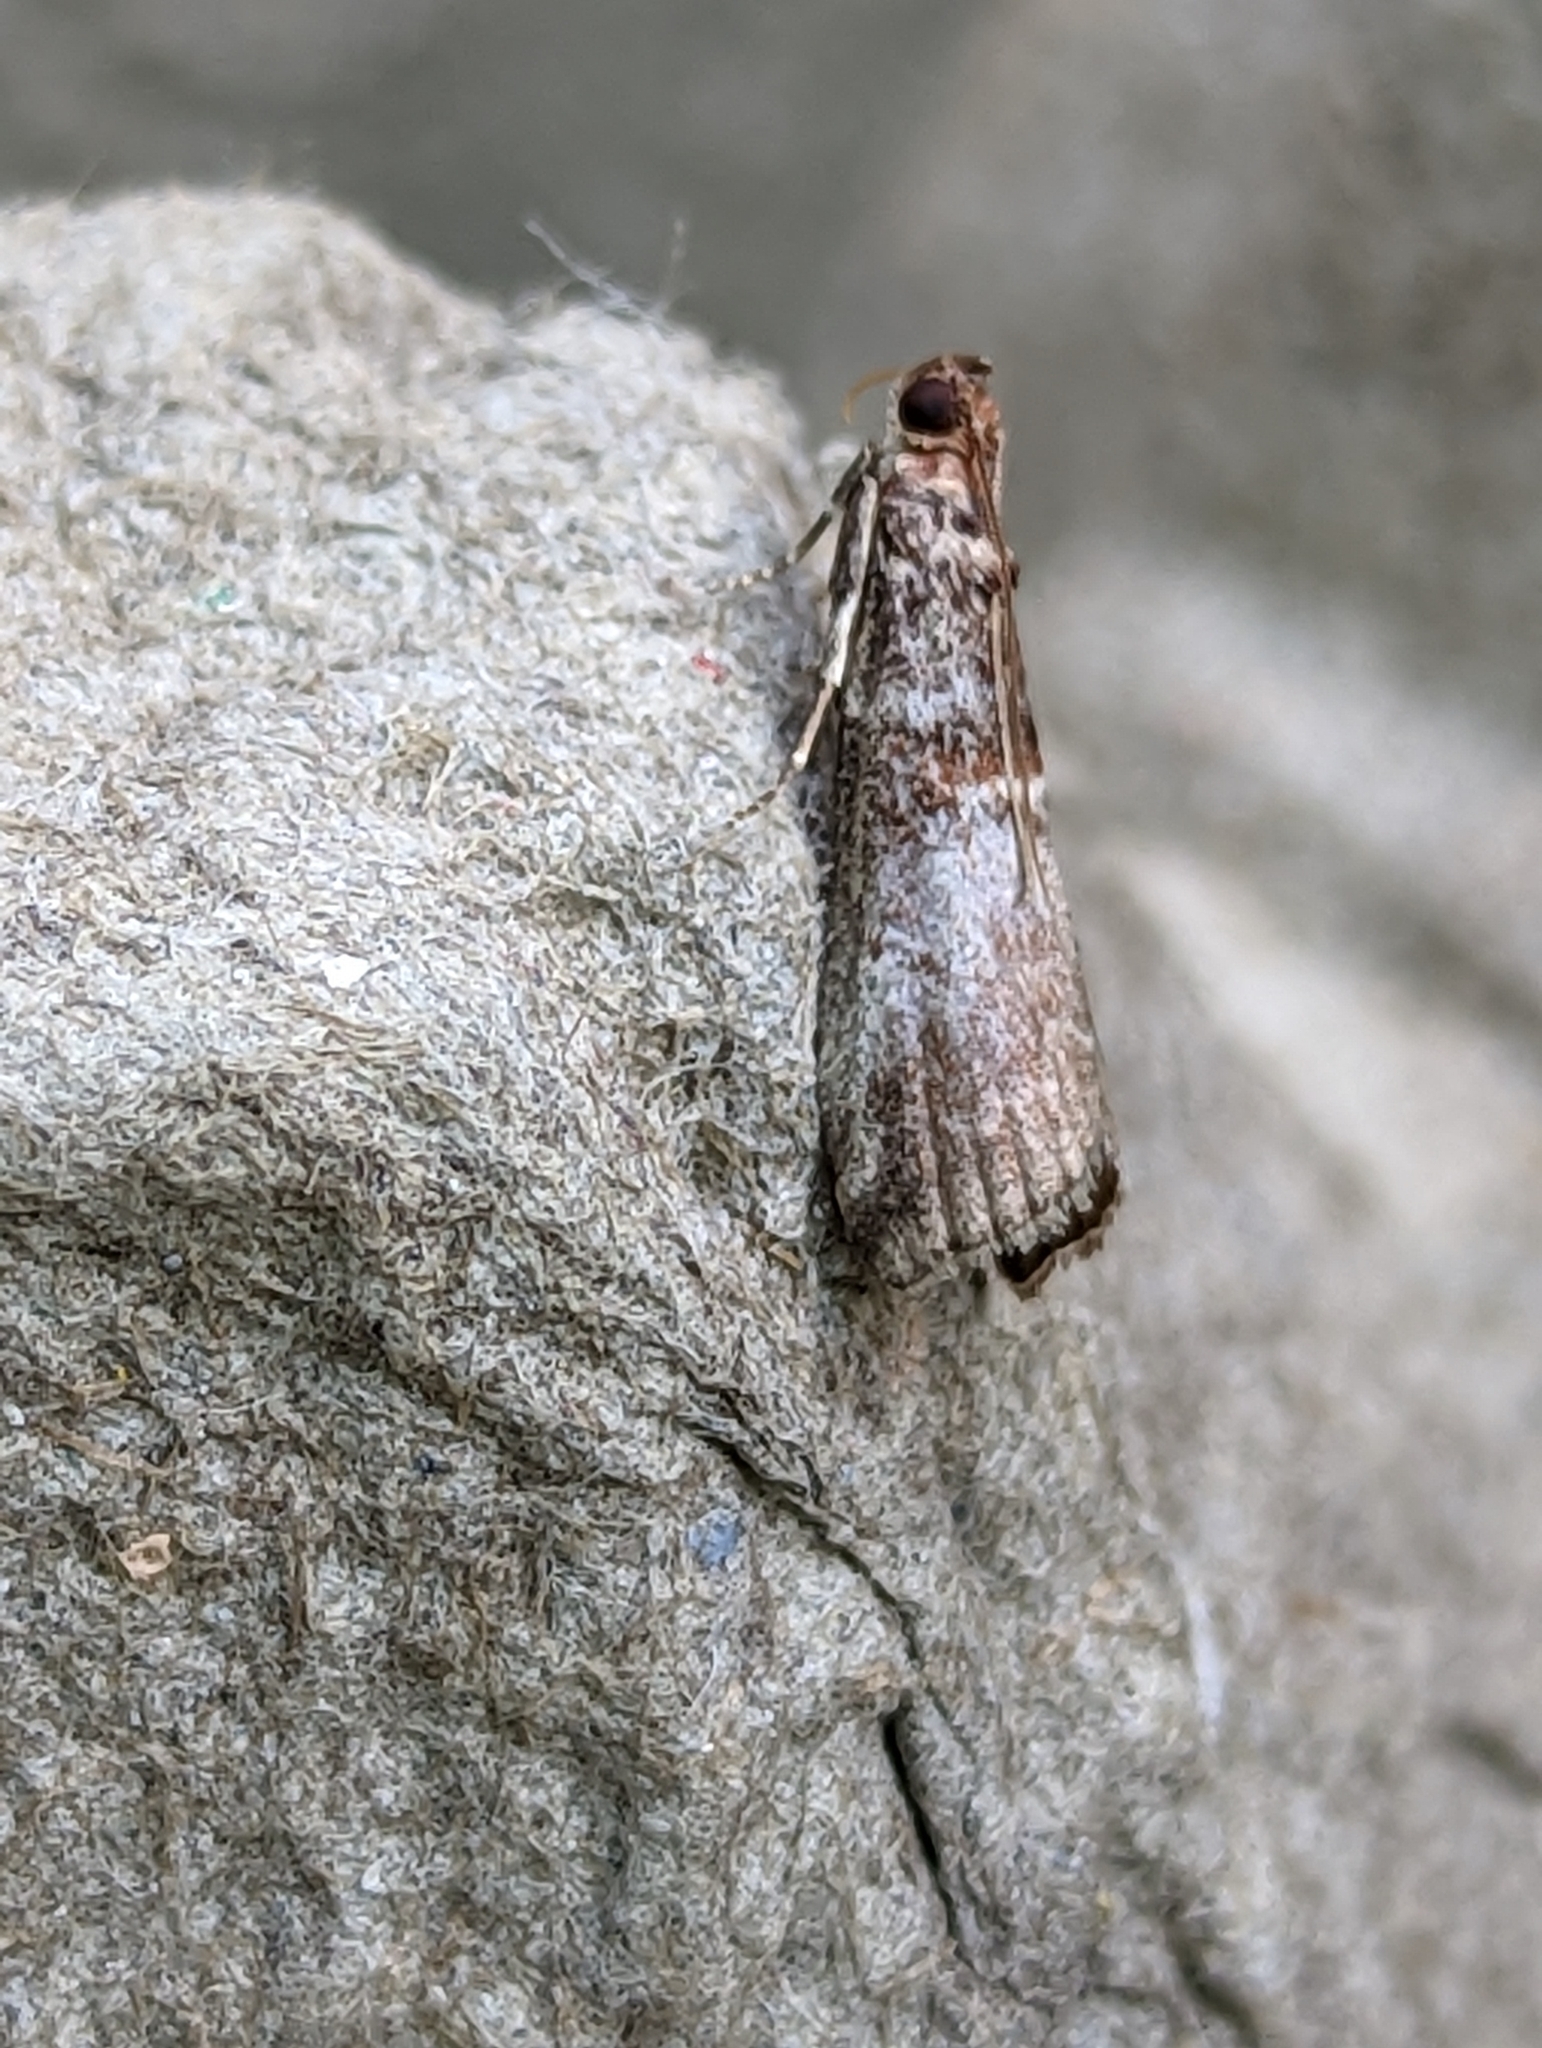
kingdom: Animalia
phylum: Arthropoda
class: Insecta
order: Lepidoptera
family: Pyralidae
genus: Acrobasis
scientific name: Acrobasis advenella
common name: Grey knot-horn
